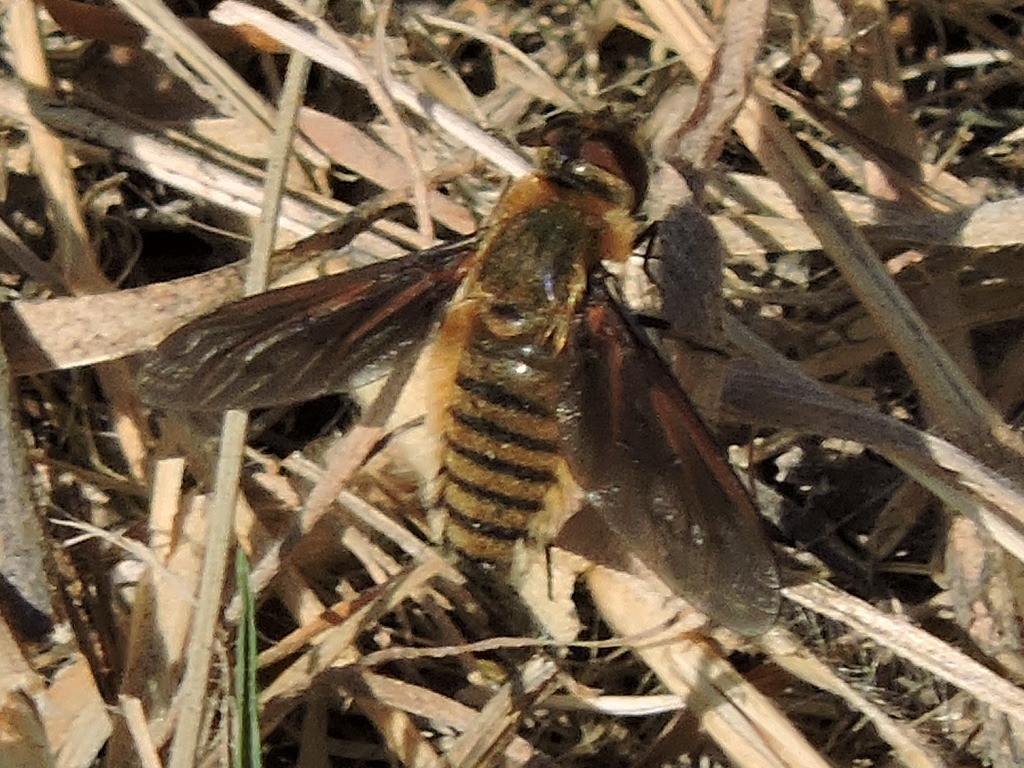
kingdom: Animalia
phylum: Arthropoda
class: Insecta
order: Diptera
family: Bombyliidae
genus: Poecilanthrax
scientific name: Poecilanthrax lucifer
